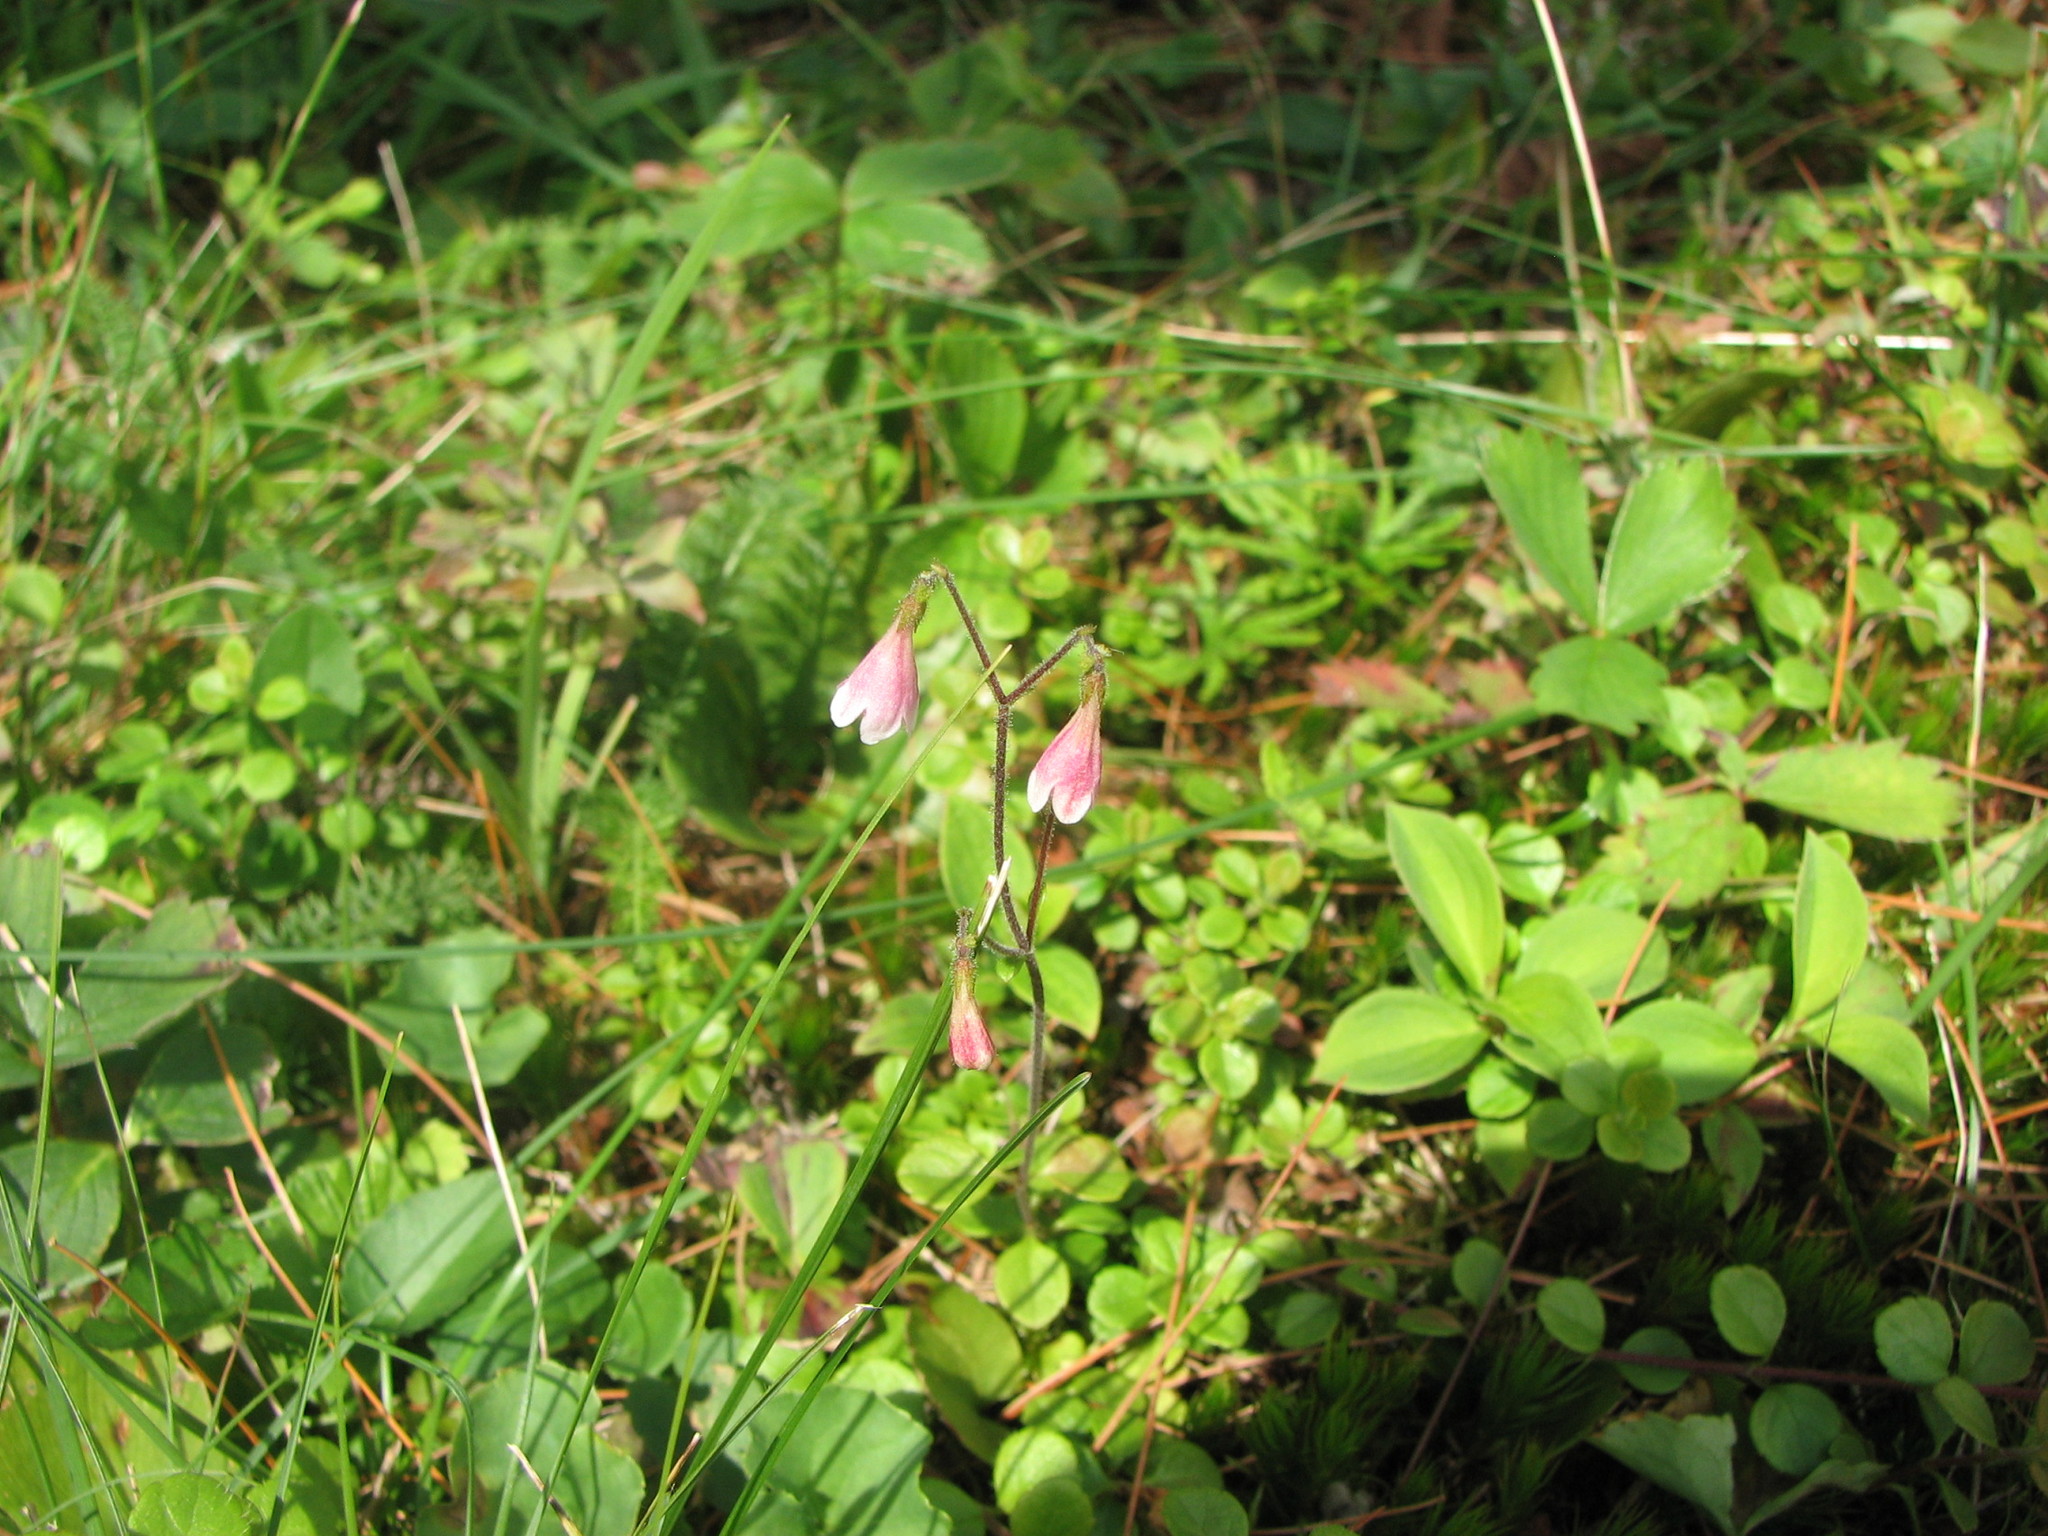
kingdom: Plantae
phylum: Tracheophyta
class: Magnoliopsida
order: Dipsacales
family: Caprifoliaceae
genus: Linnaea
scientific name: Linnaea borealis
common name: Twinflower
